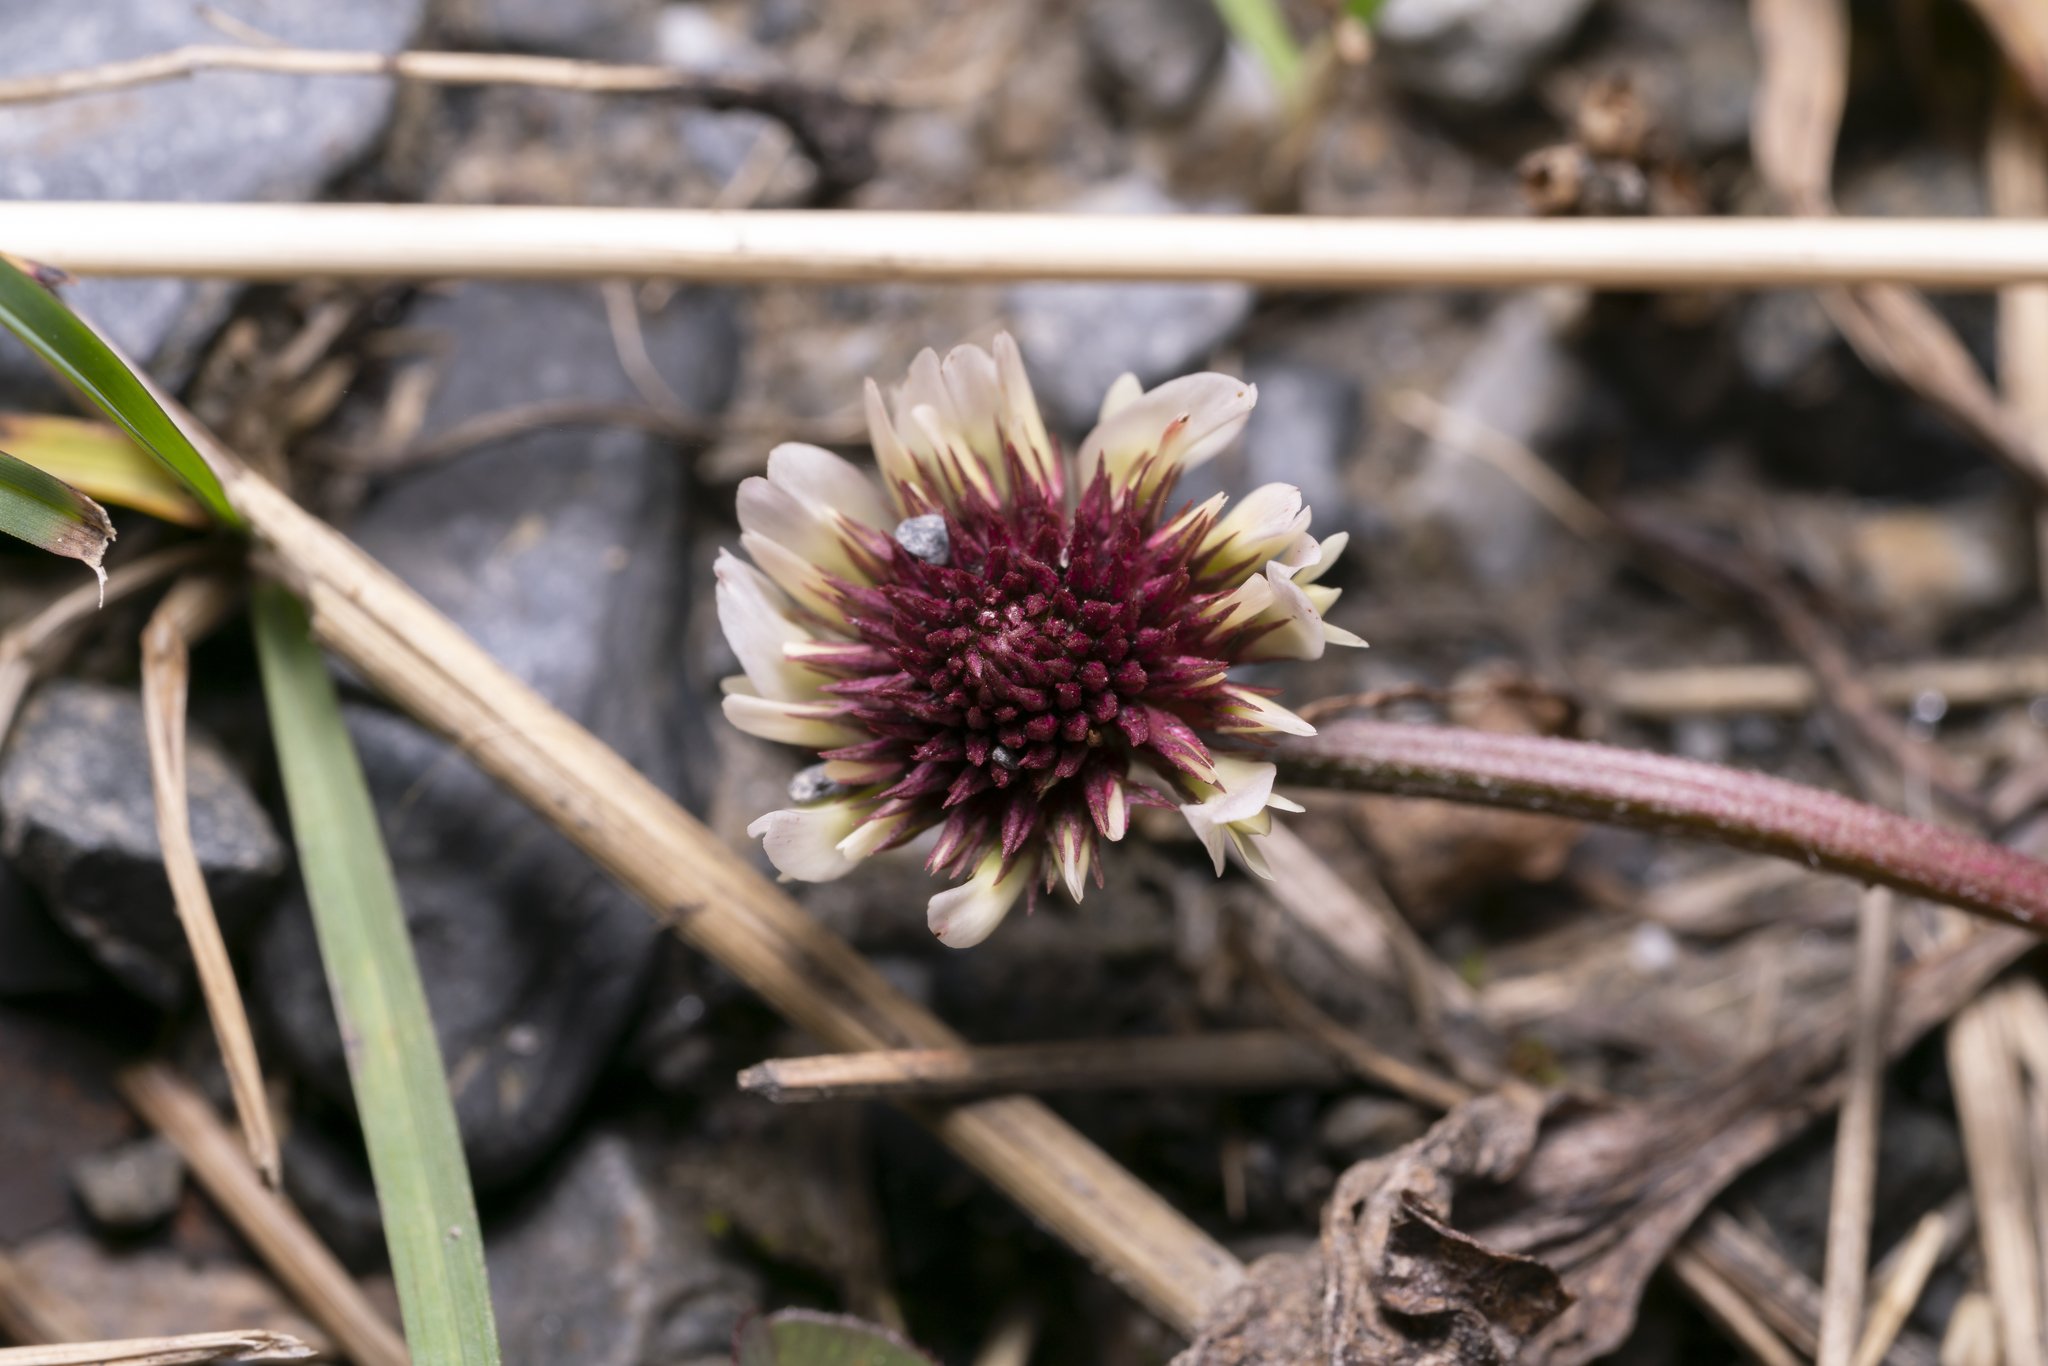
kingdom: Plantae
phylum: Tracheophyta
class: Magnoliopsida
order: Fabales
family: Fabaceae
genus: Trifolium
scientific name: Trifolium repens
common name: White clover
